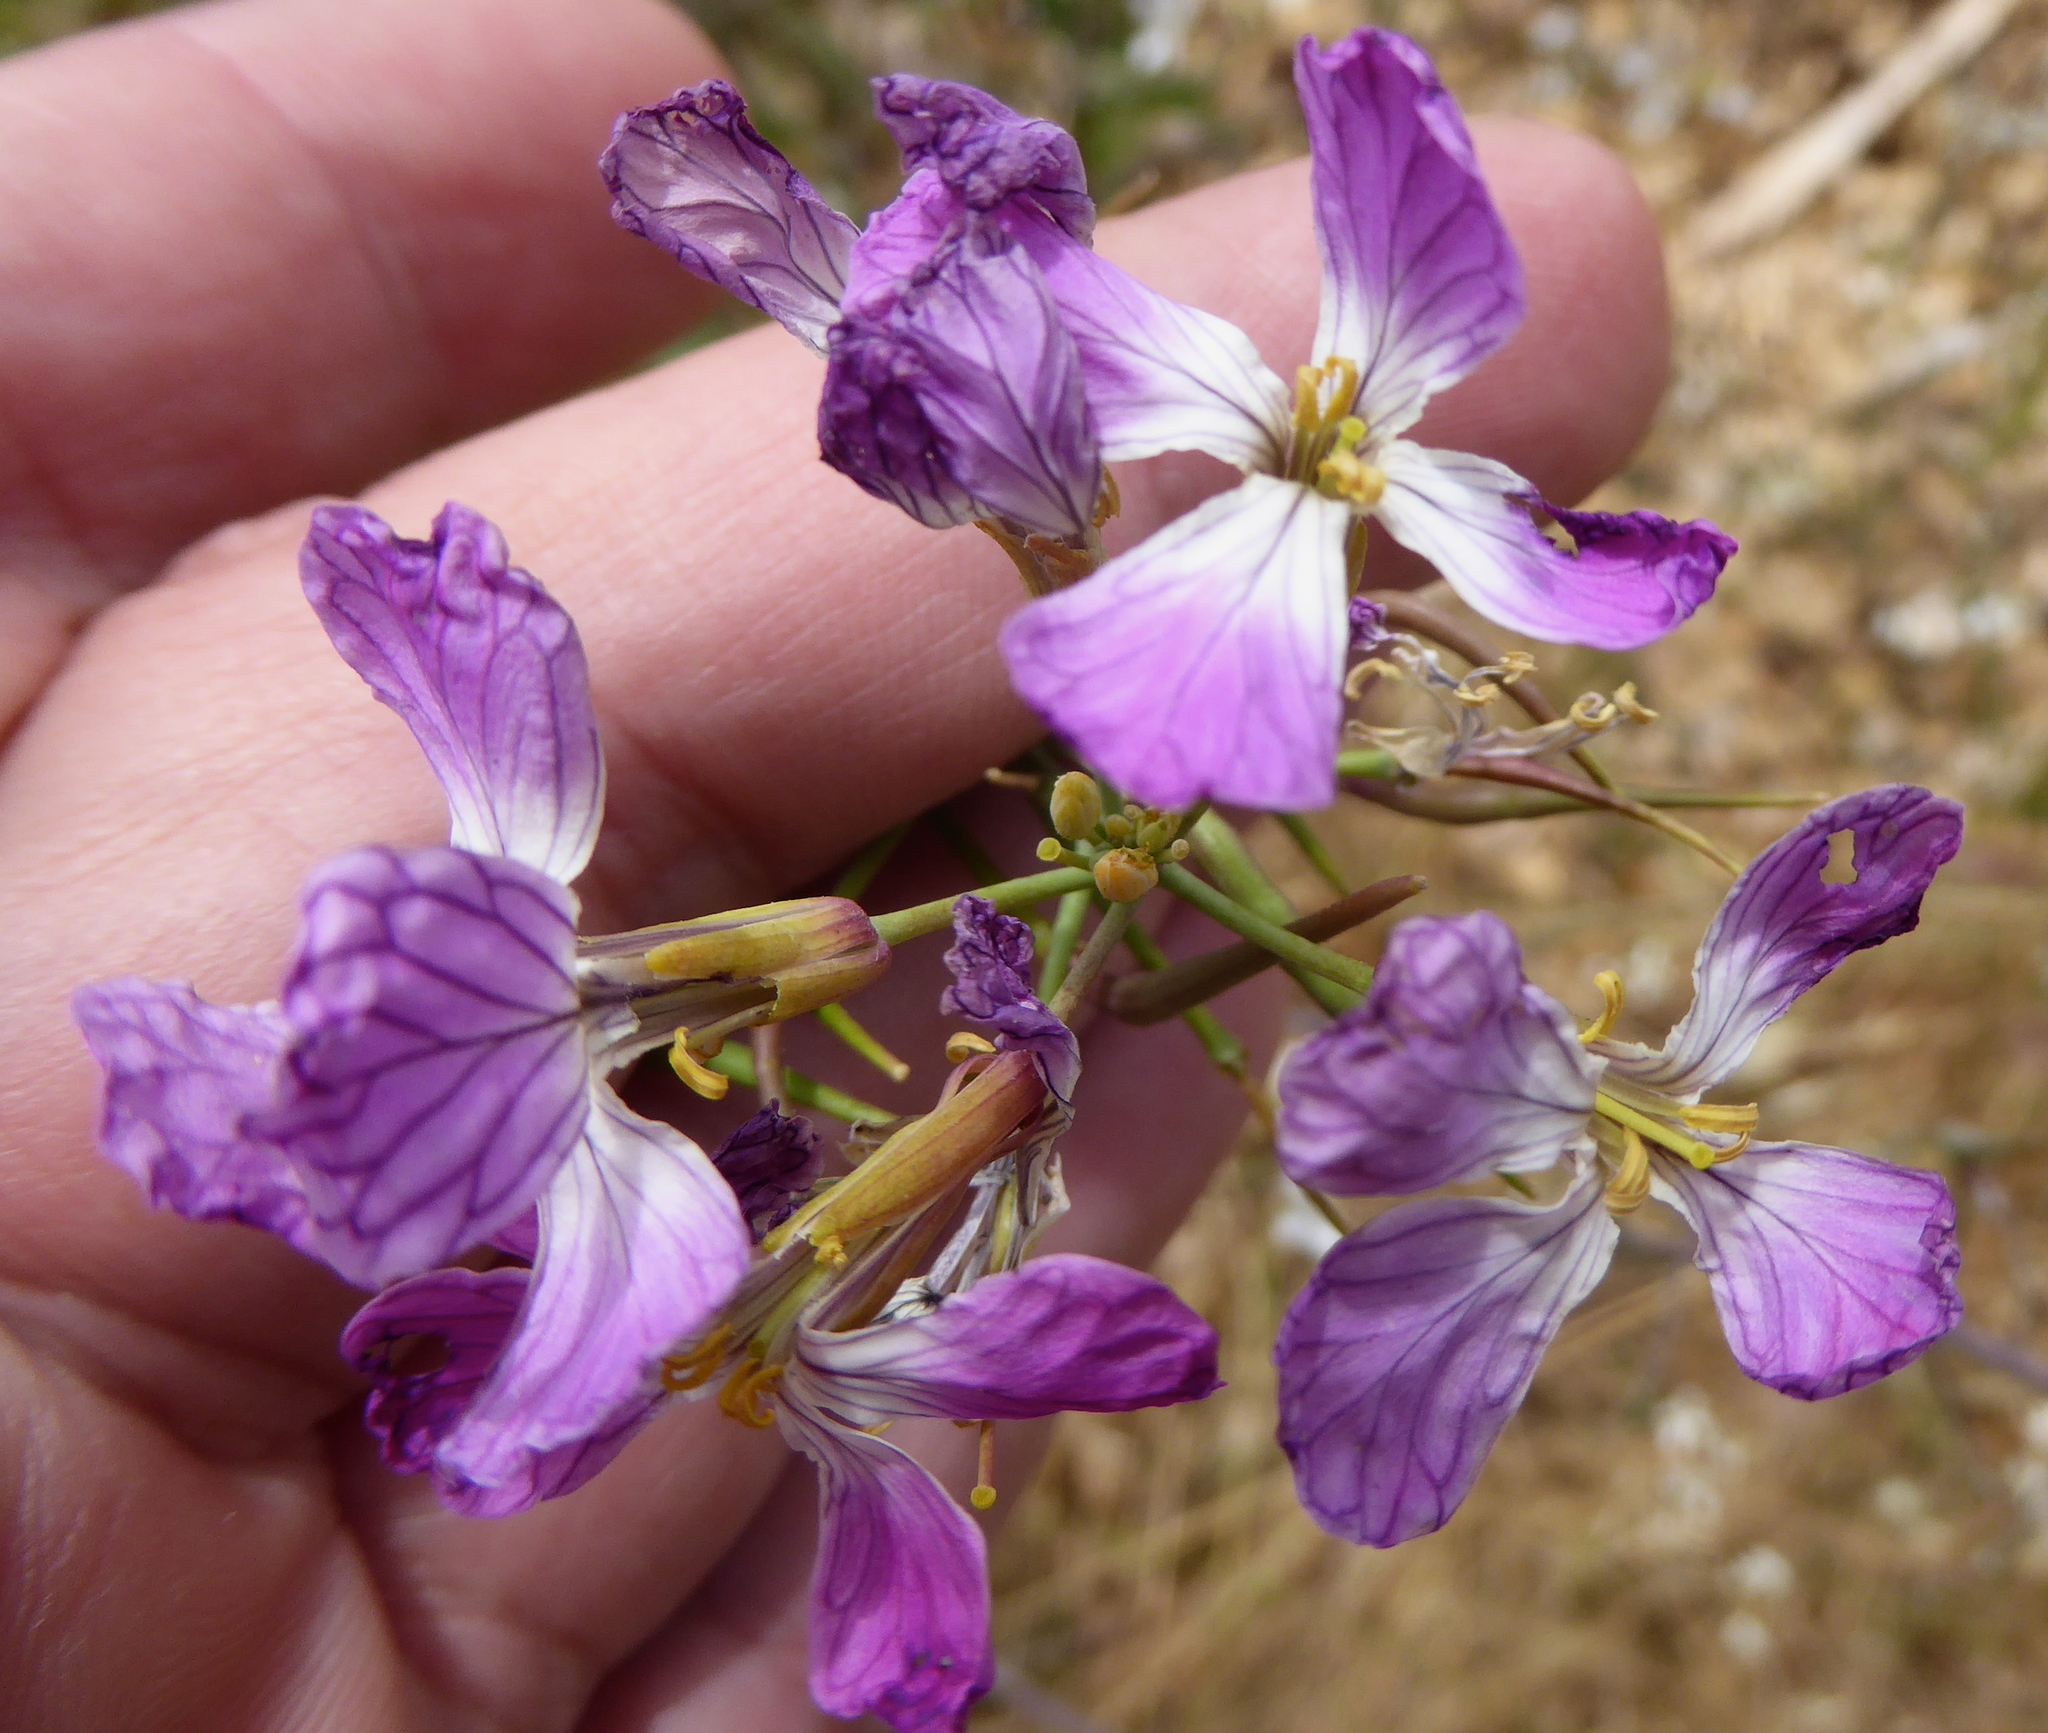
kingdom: Plantae
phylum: Tracheophyta
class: Magnoliopsida
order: Brassicales
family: Brassicaceae
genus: Raphanus
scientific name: Raphanus sativus
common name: Cultivated radish
